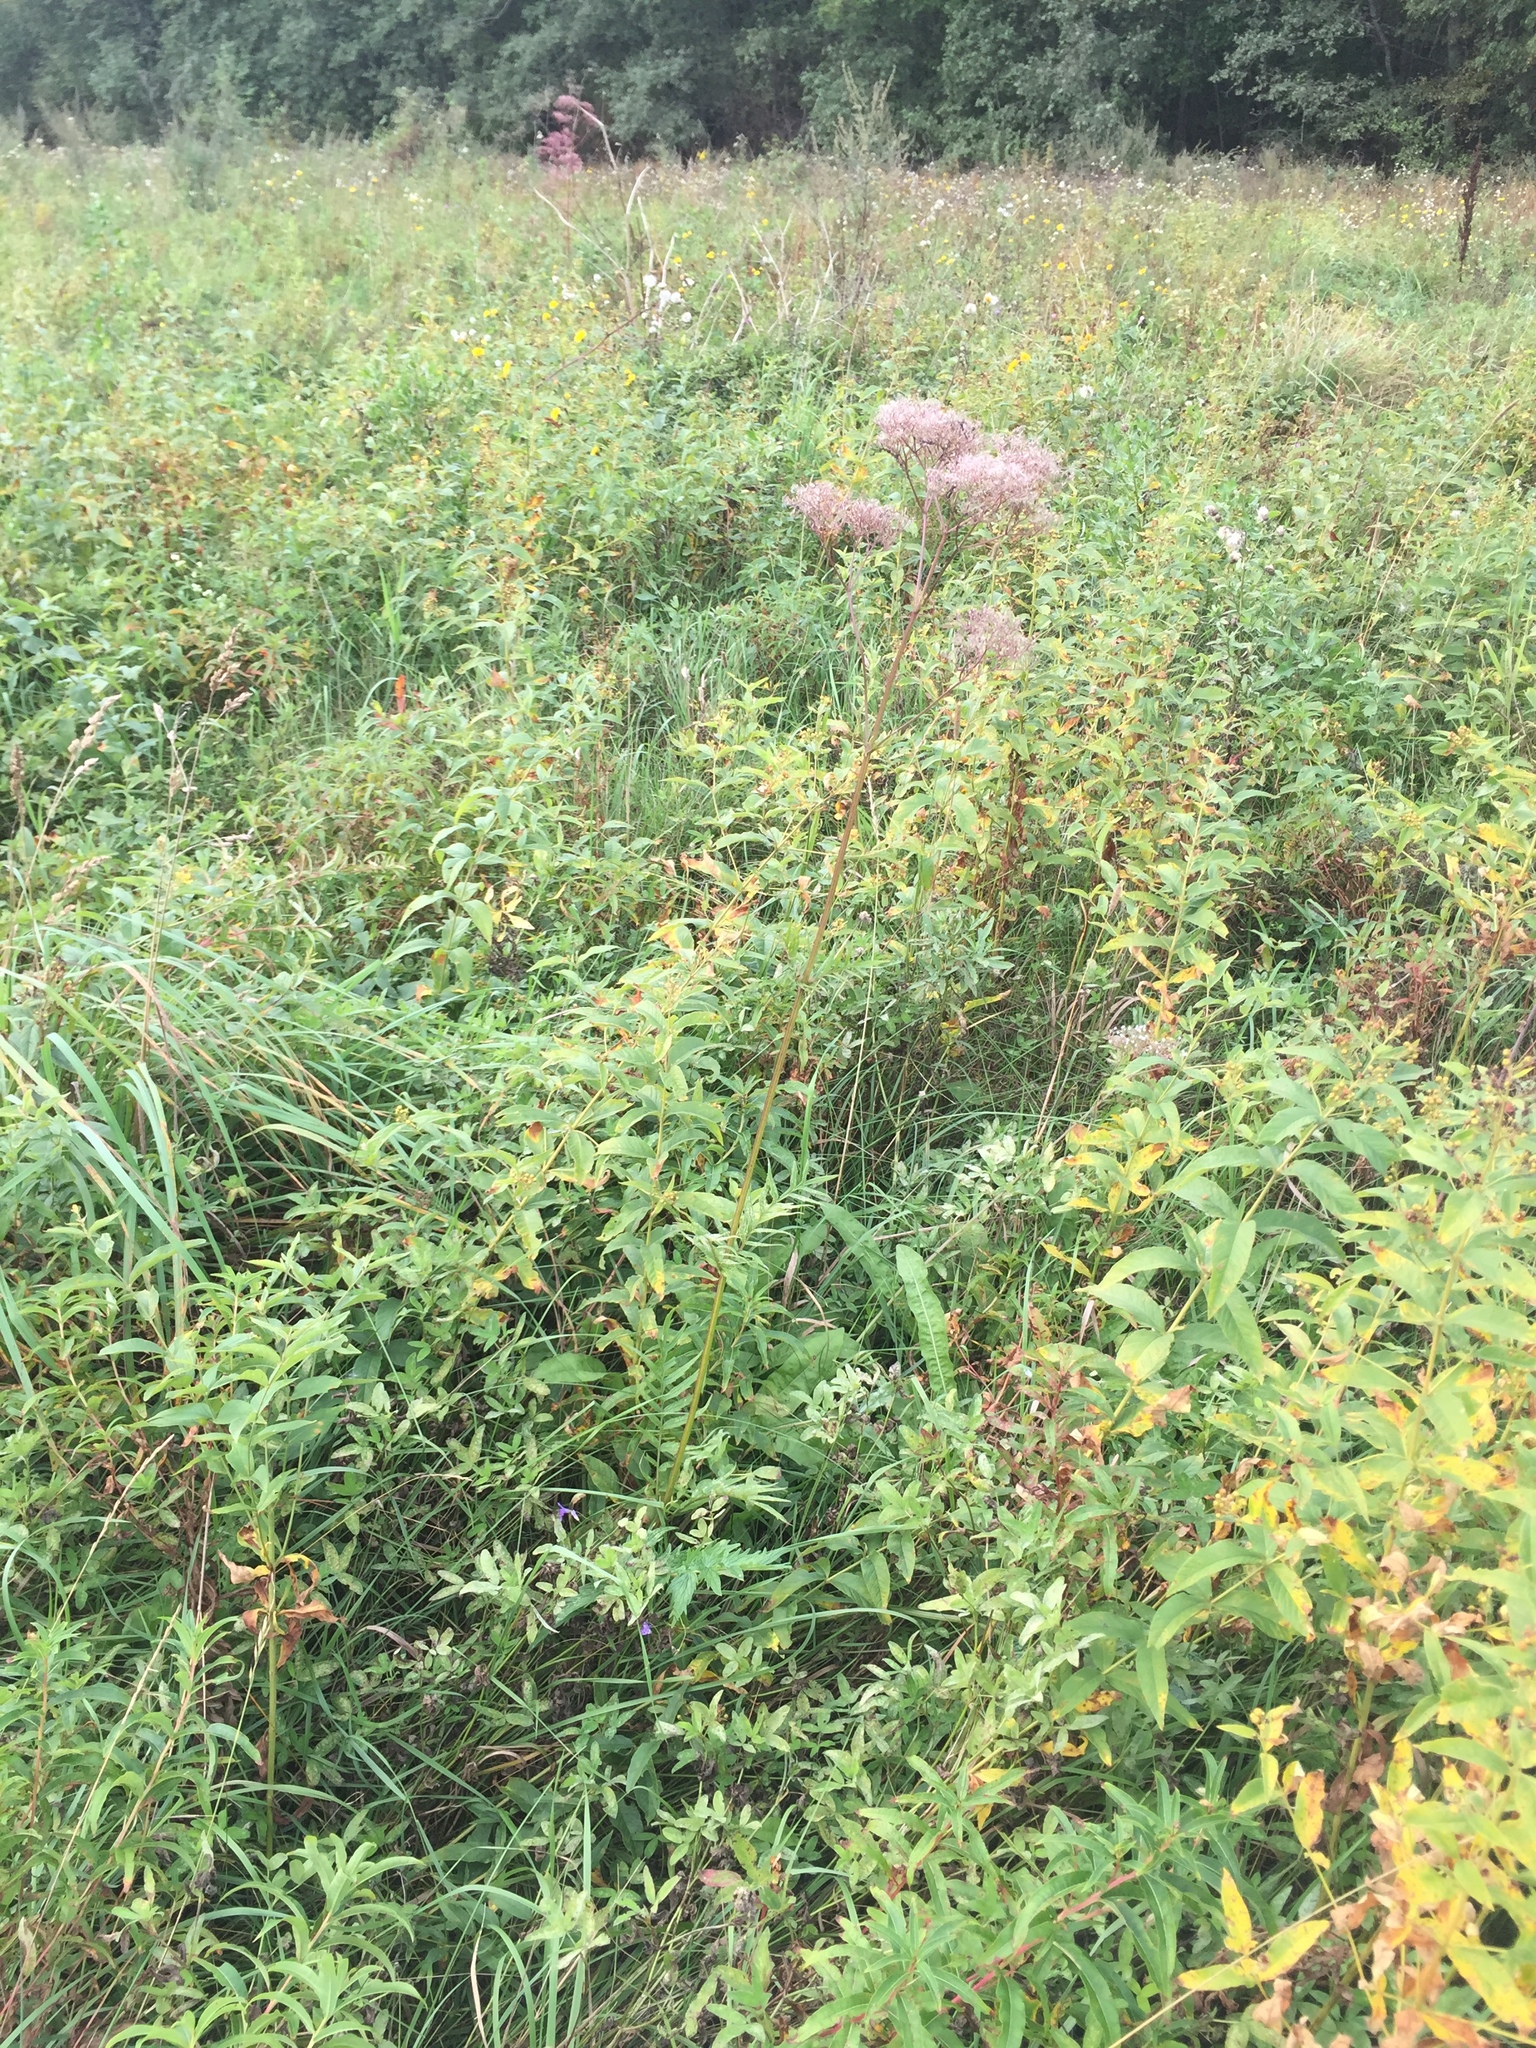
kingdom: Plantae
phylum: Tracheophyta
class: Magnoliopsida
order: Dipsacales
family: Caprifoliaceae
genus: Valeriana
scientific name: Valeriana officinalis
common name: Common valerian
